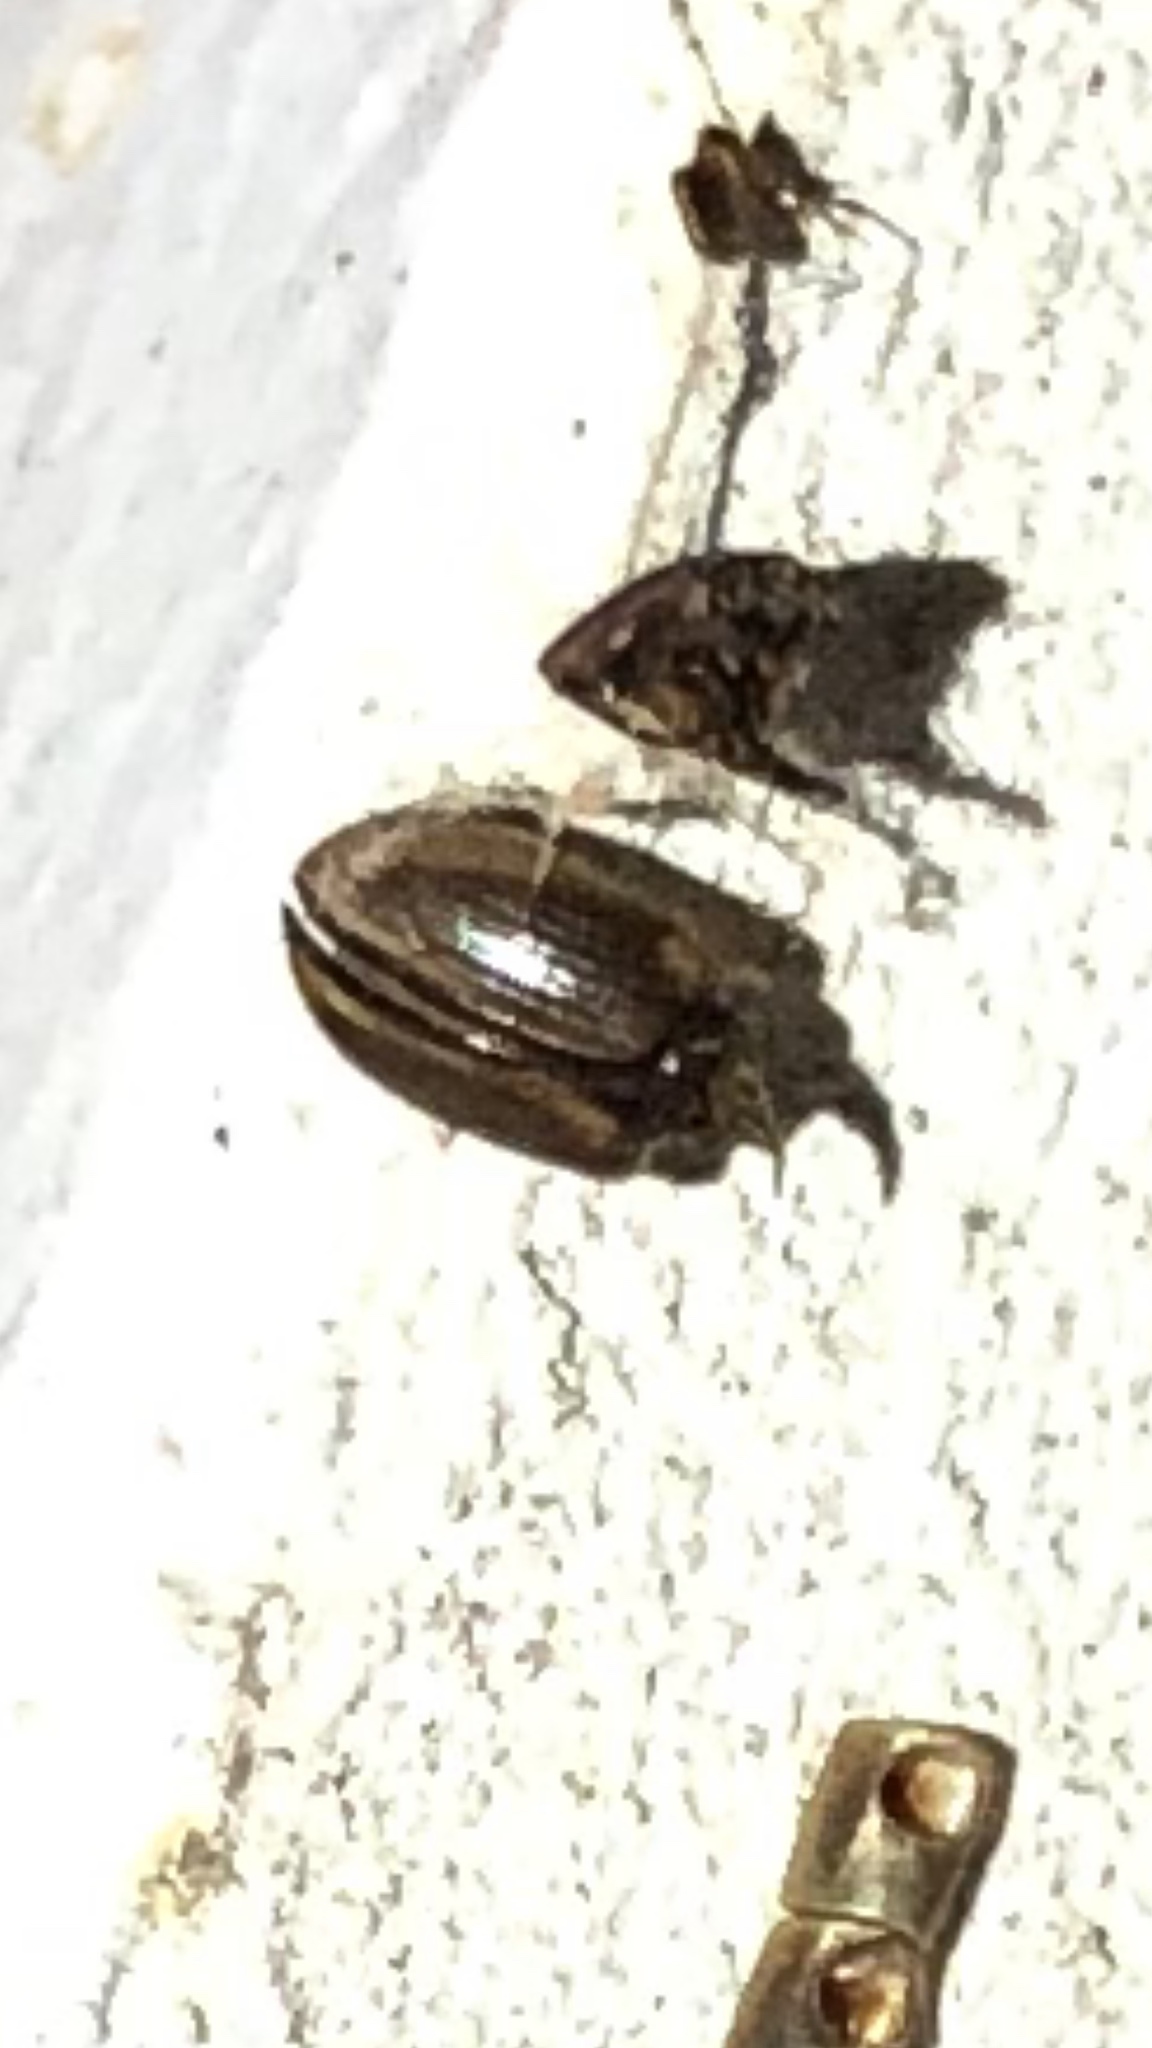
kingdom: Animalia
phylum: Arthropoda
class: Insecta
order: Coleoptera
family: Scarabaeidae
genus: Labarrus
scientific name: Labarrus lividus
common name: Scarab beetle
